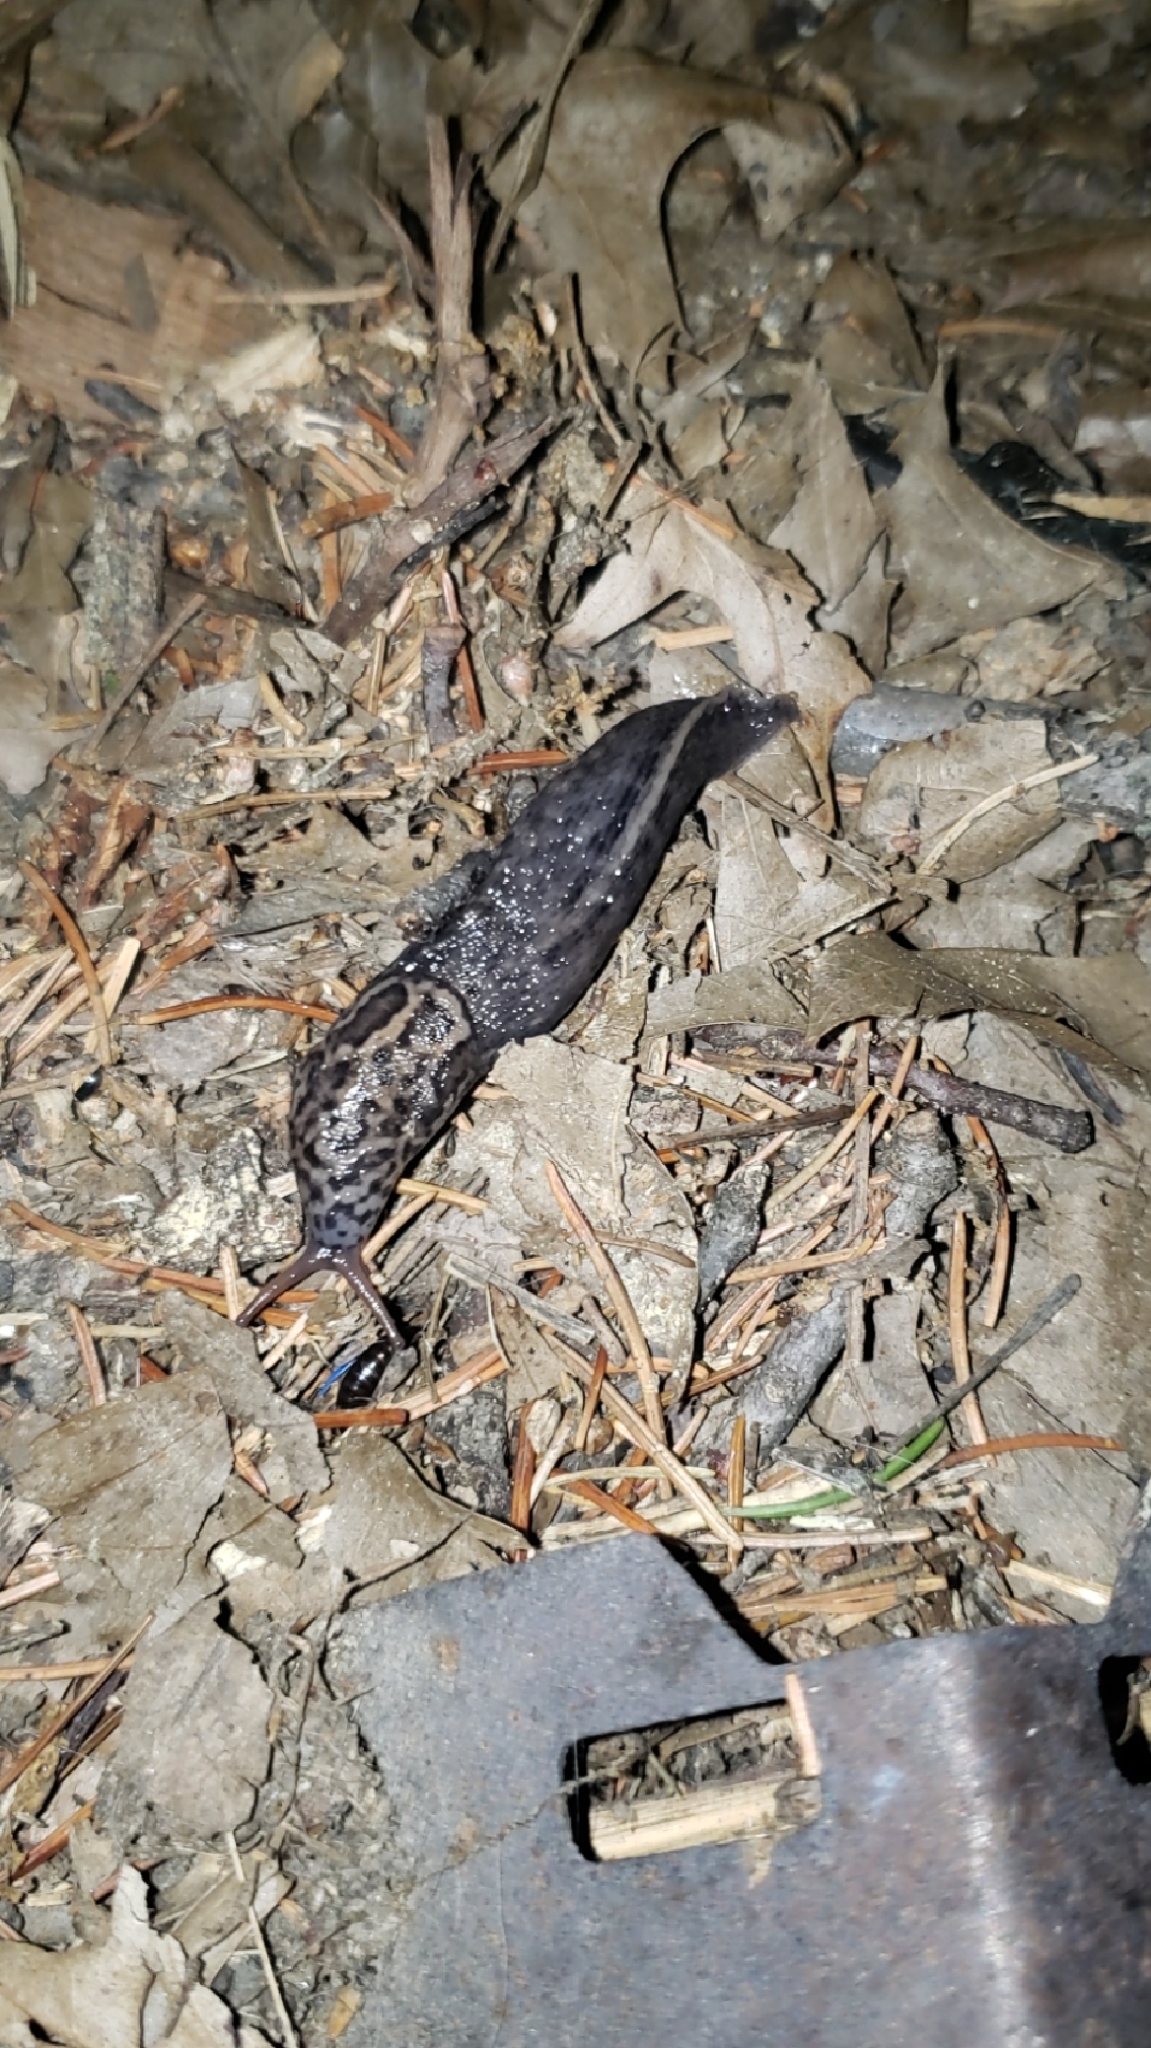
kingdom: Animalia
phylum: Mollusca
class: Gastropoda
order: Stylommatophora
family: Limacidae
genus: Limax
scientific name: Limax maximus
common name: Great grey slug
